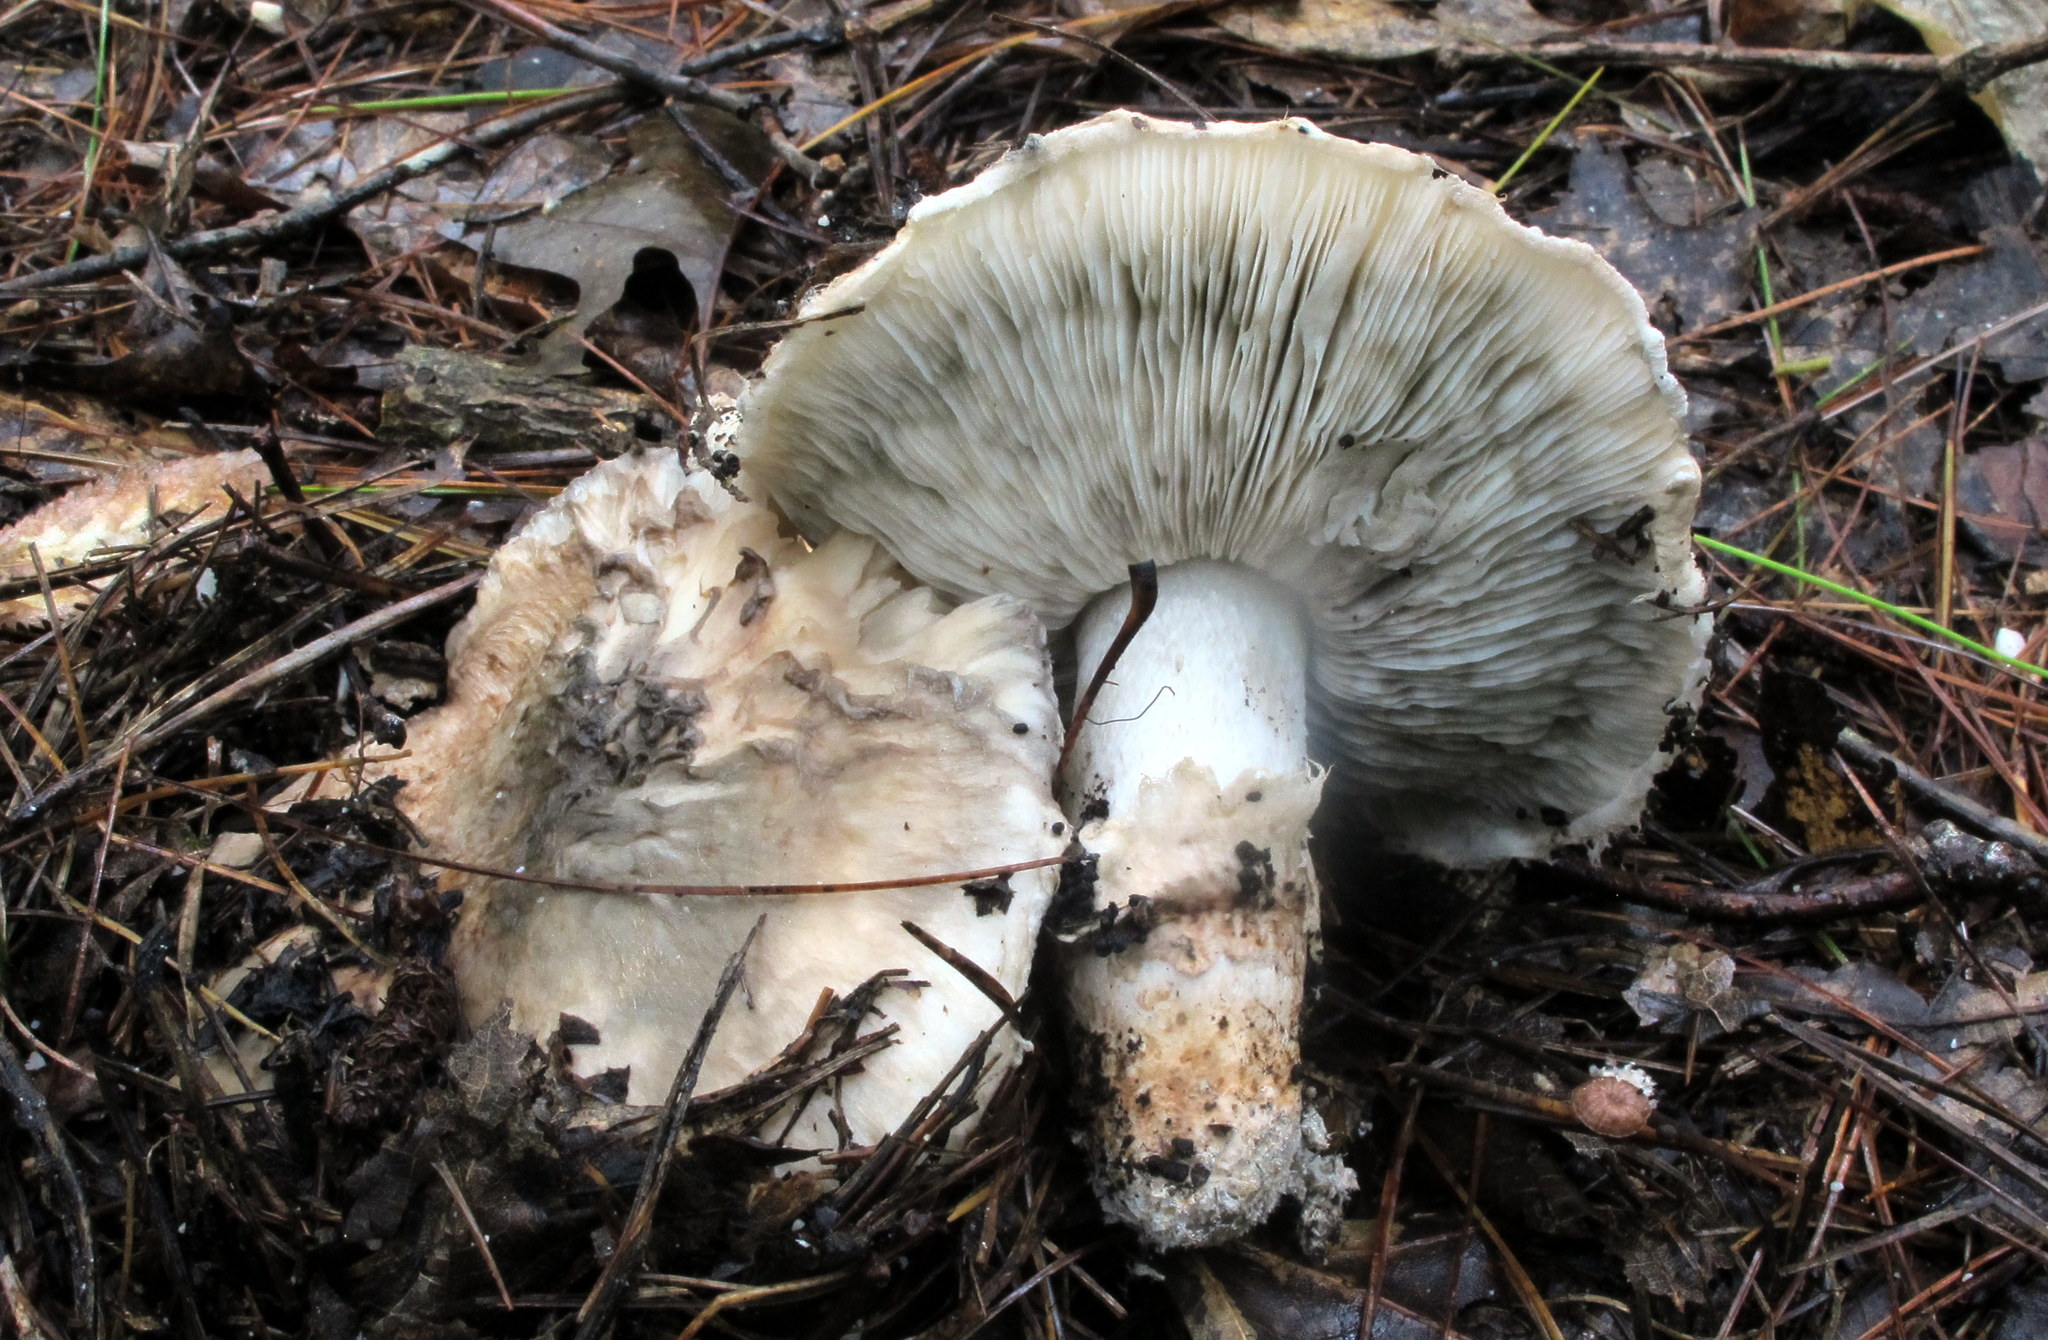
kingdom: Fungi
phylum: Basidiomycota
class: Agaricomycetes
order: Agaricales
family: Tricholomataceae
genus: Tricholoma
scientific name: Tricholoma caligatum
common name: True booted knight
